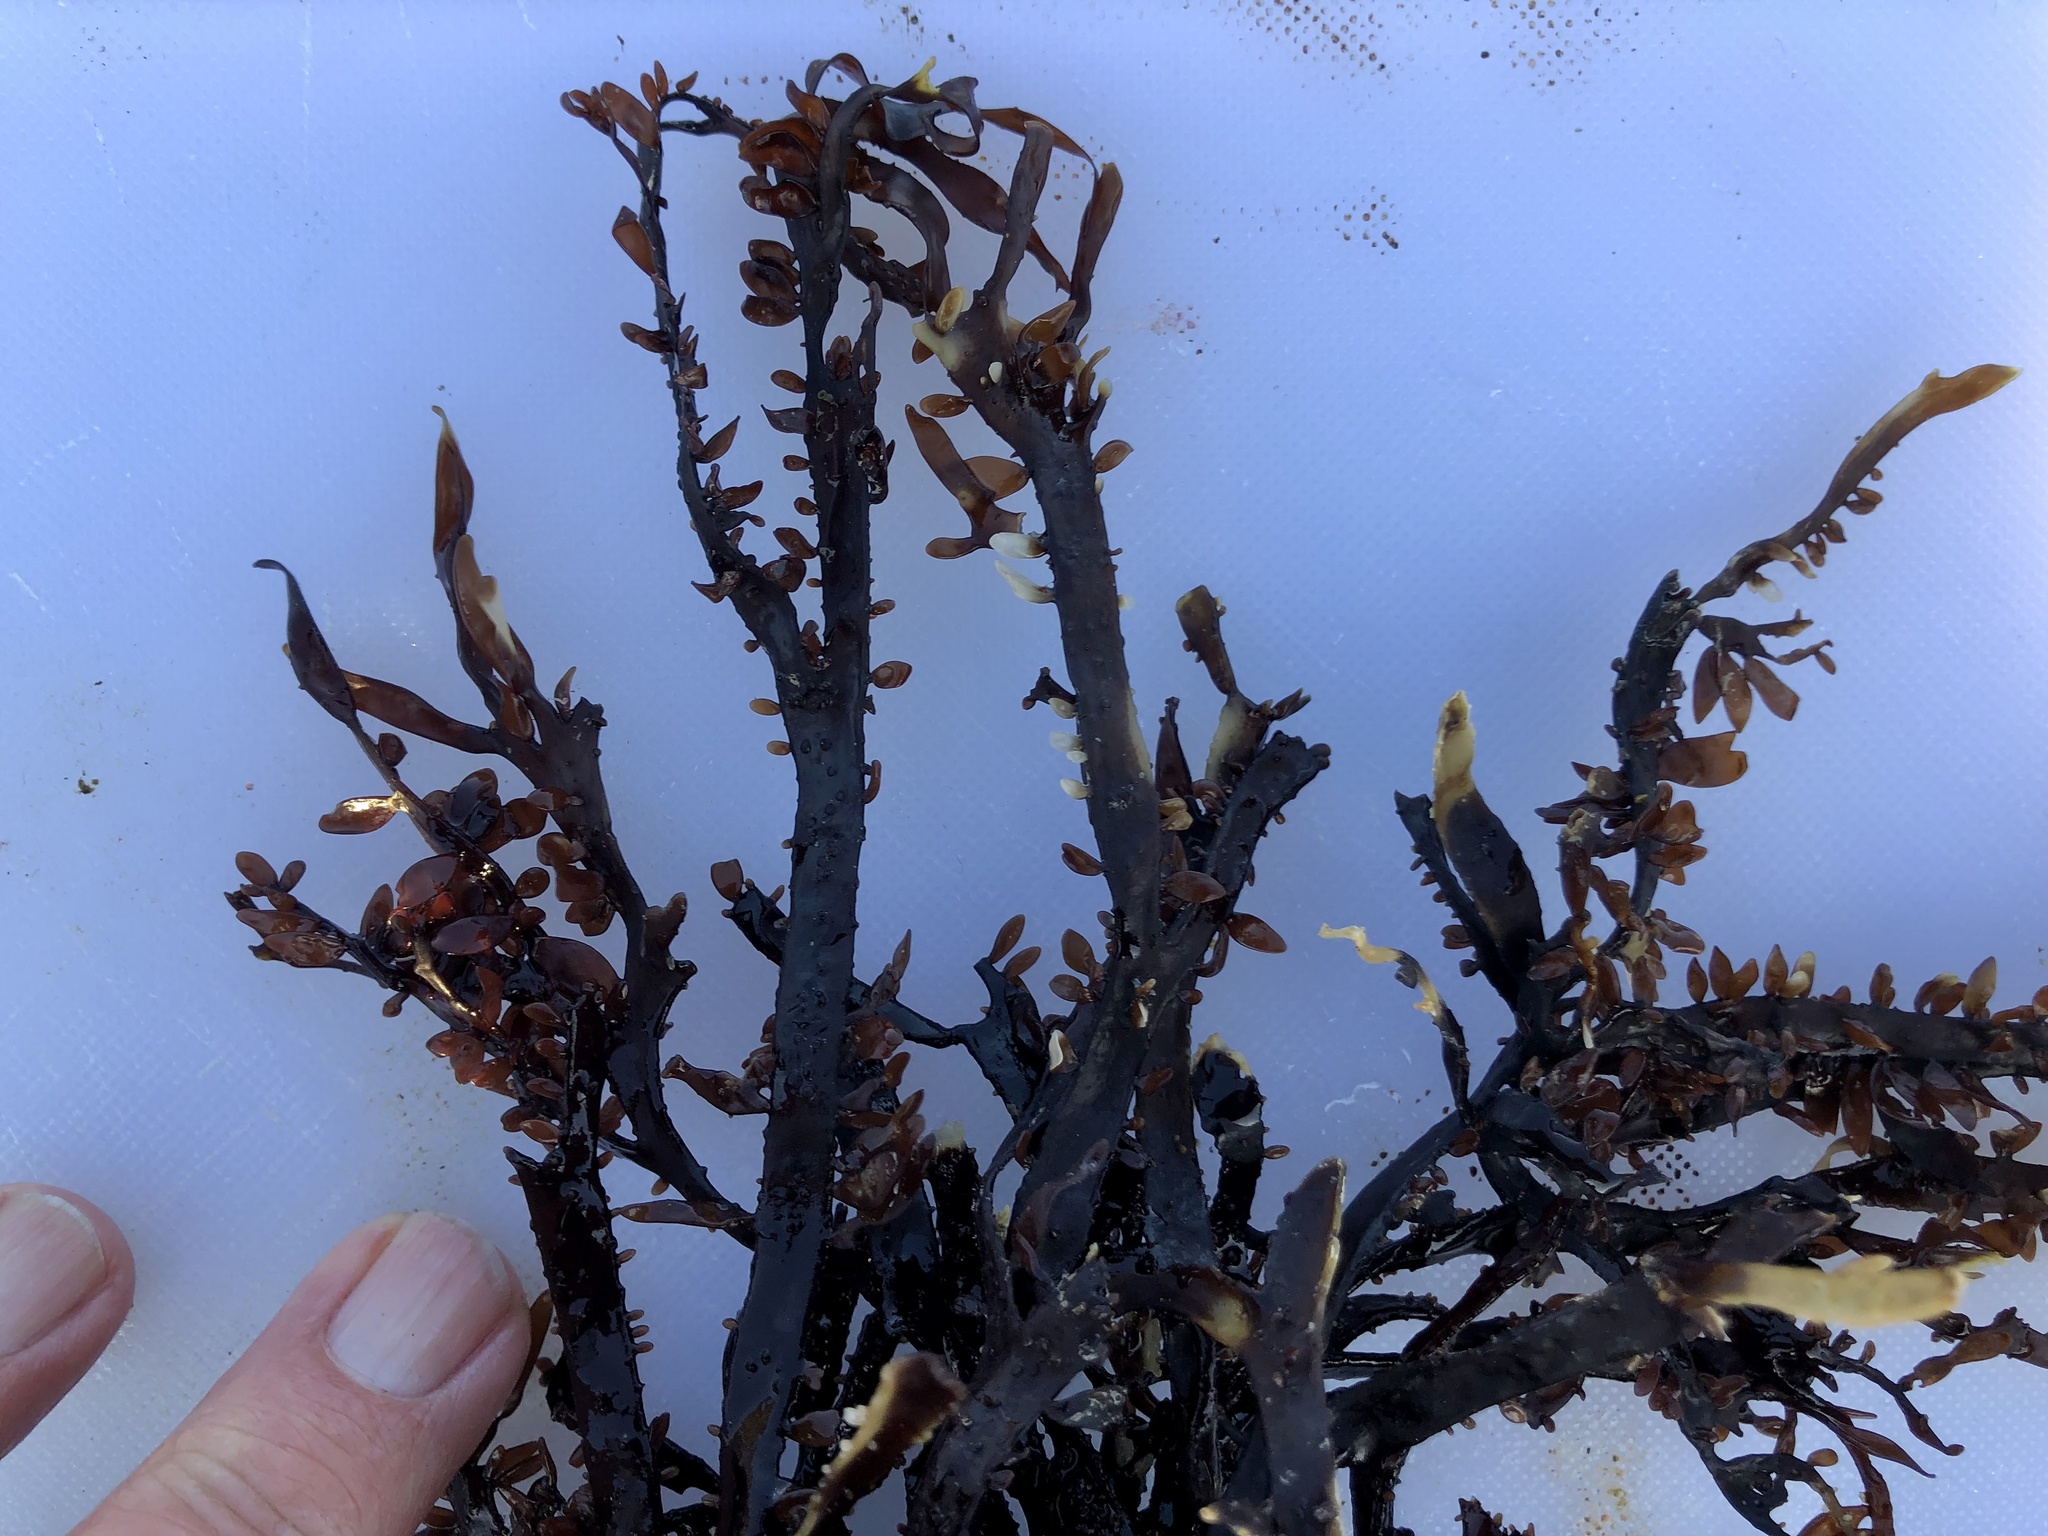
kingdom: Plantae
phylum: Rhodophyta
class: Florideophyceae
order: Halymeniales
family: Halymeniaceae
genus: Grateloupia
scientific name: Grateloupia Prionitis lanceolata
